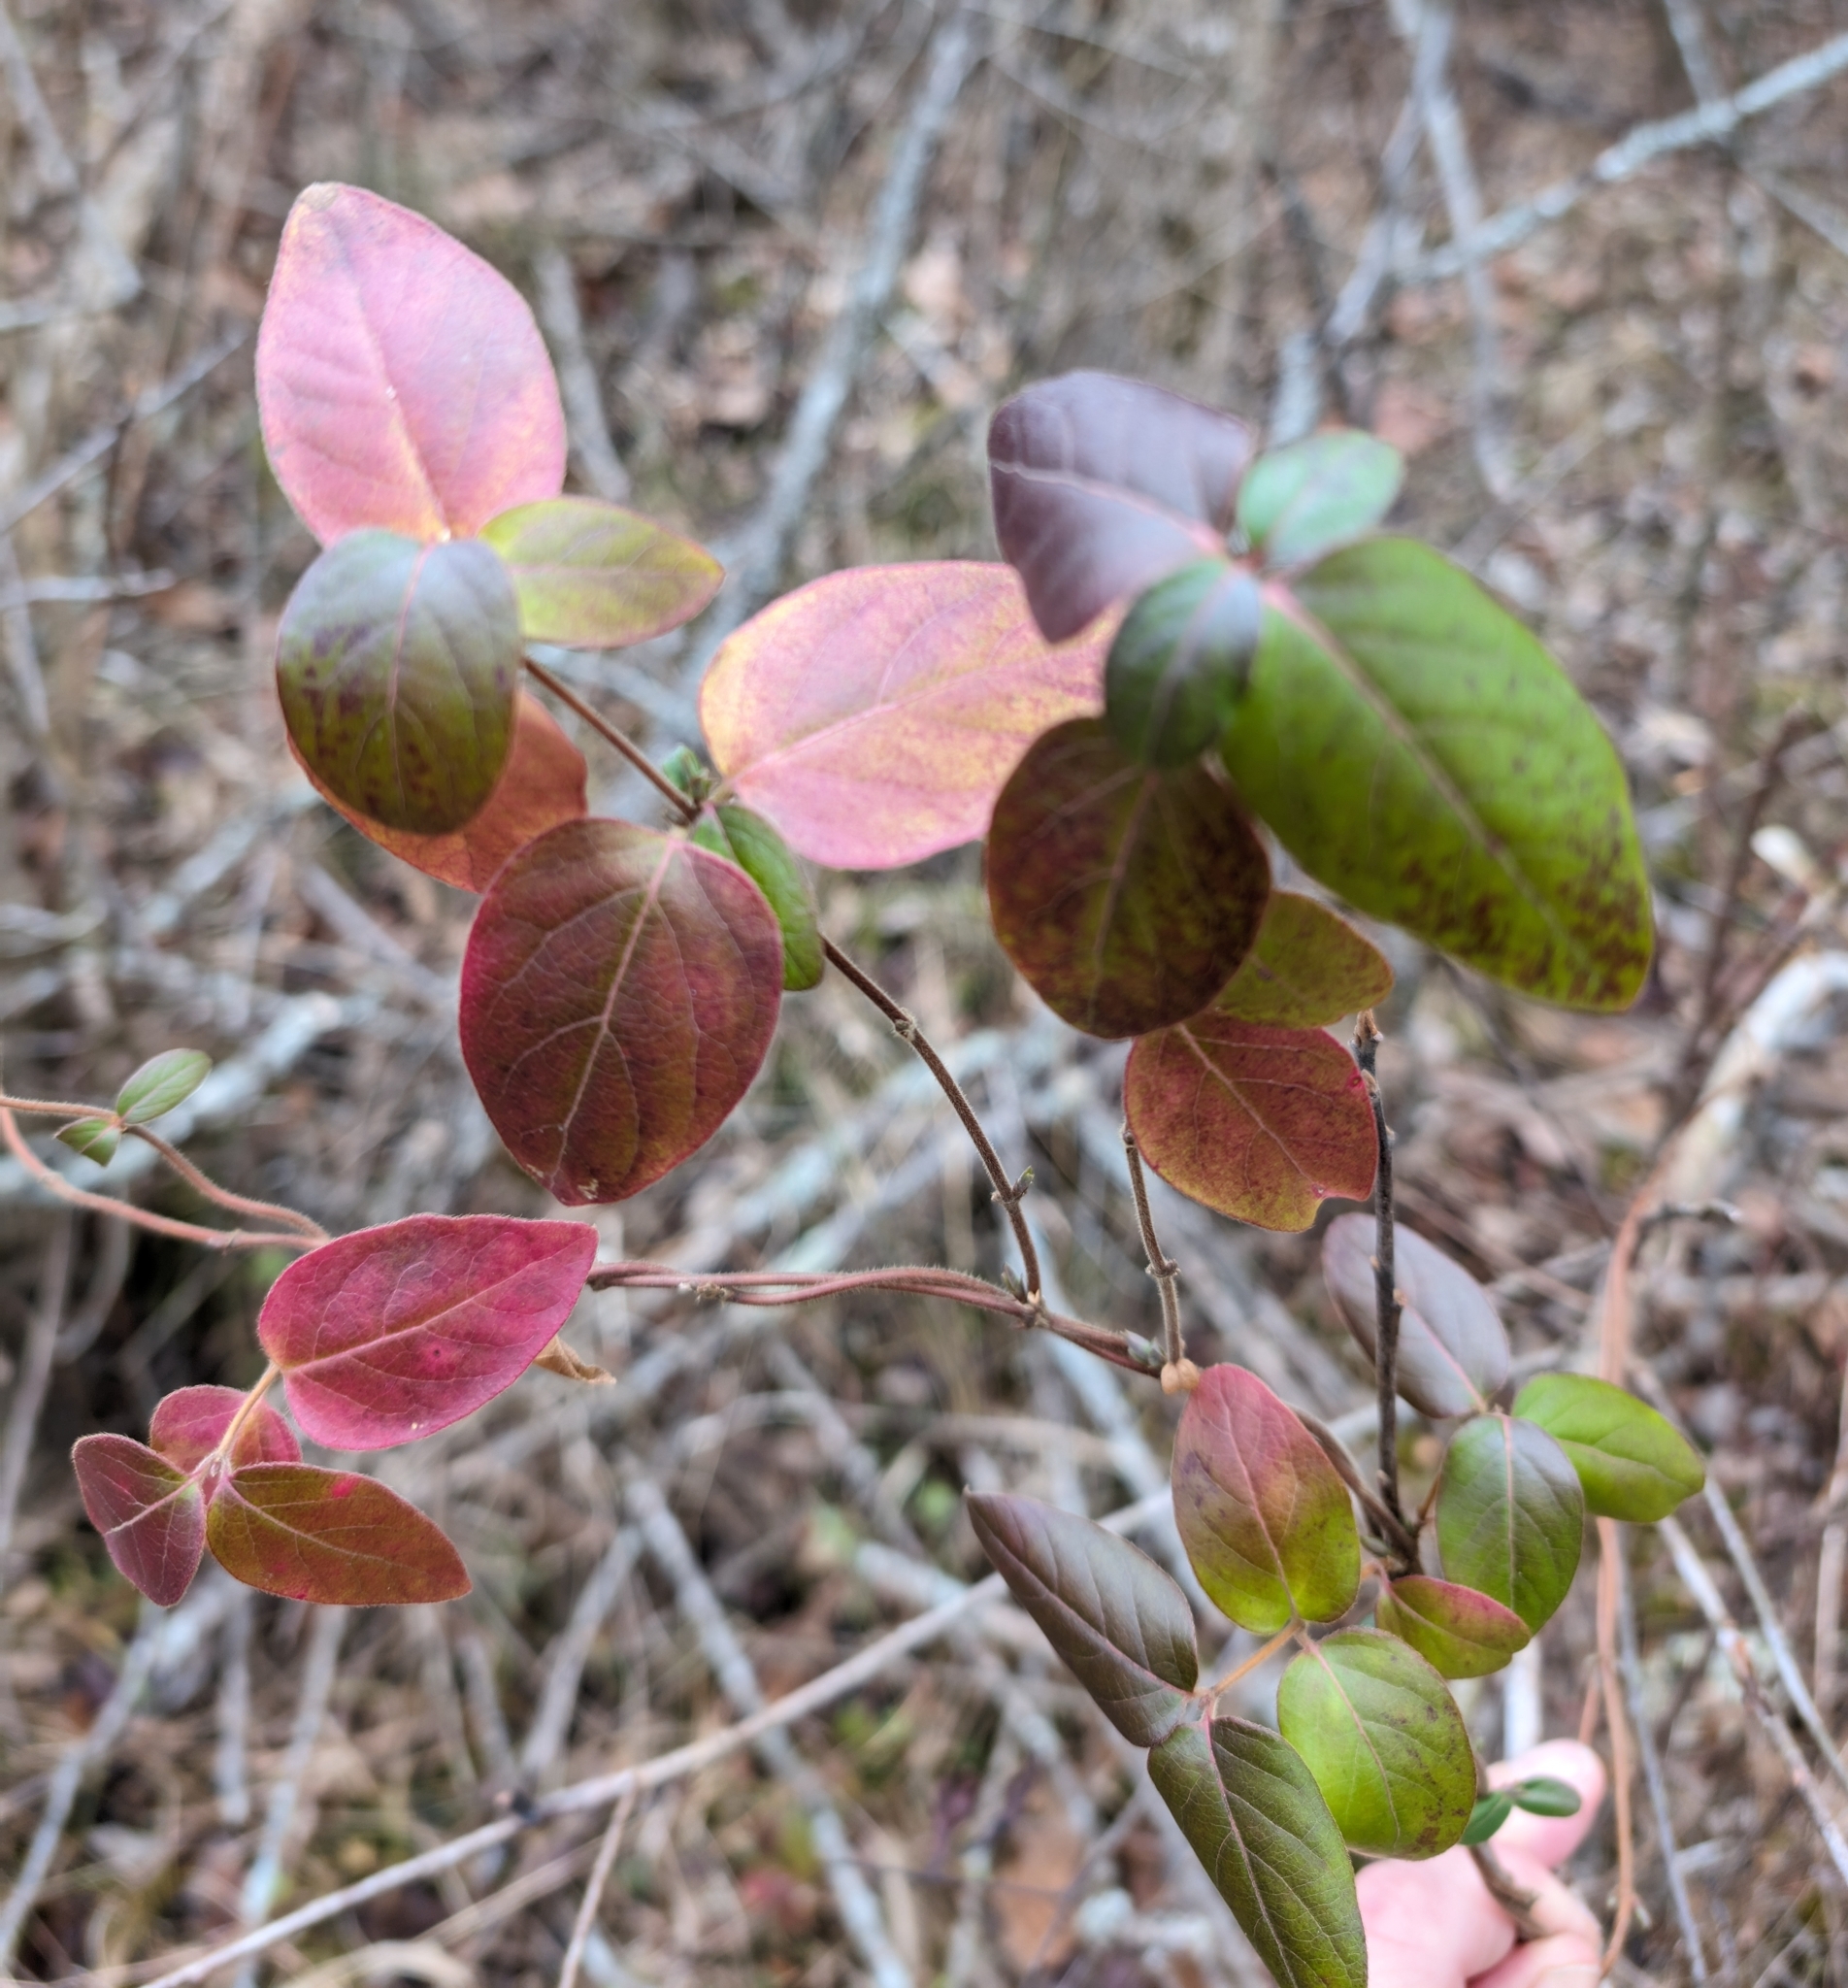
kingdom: Plantae
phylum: Tracheophyta
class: Magnoliopsida
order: Dipsacales
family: Caprifoliaceae
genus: Lonicera
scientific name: Lonicera japonica
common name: Japanese honeysuckle
